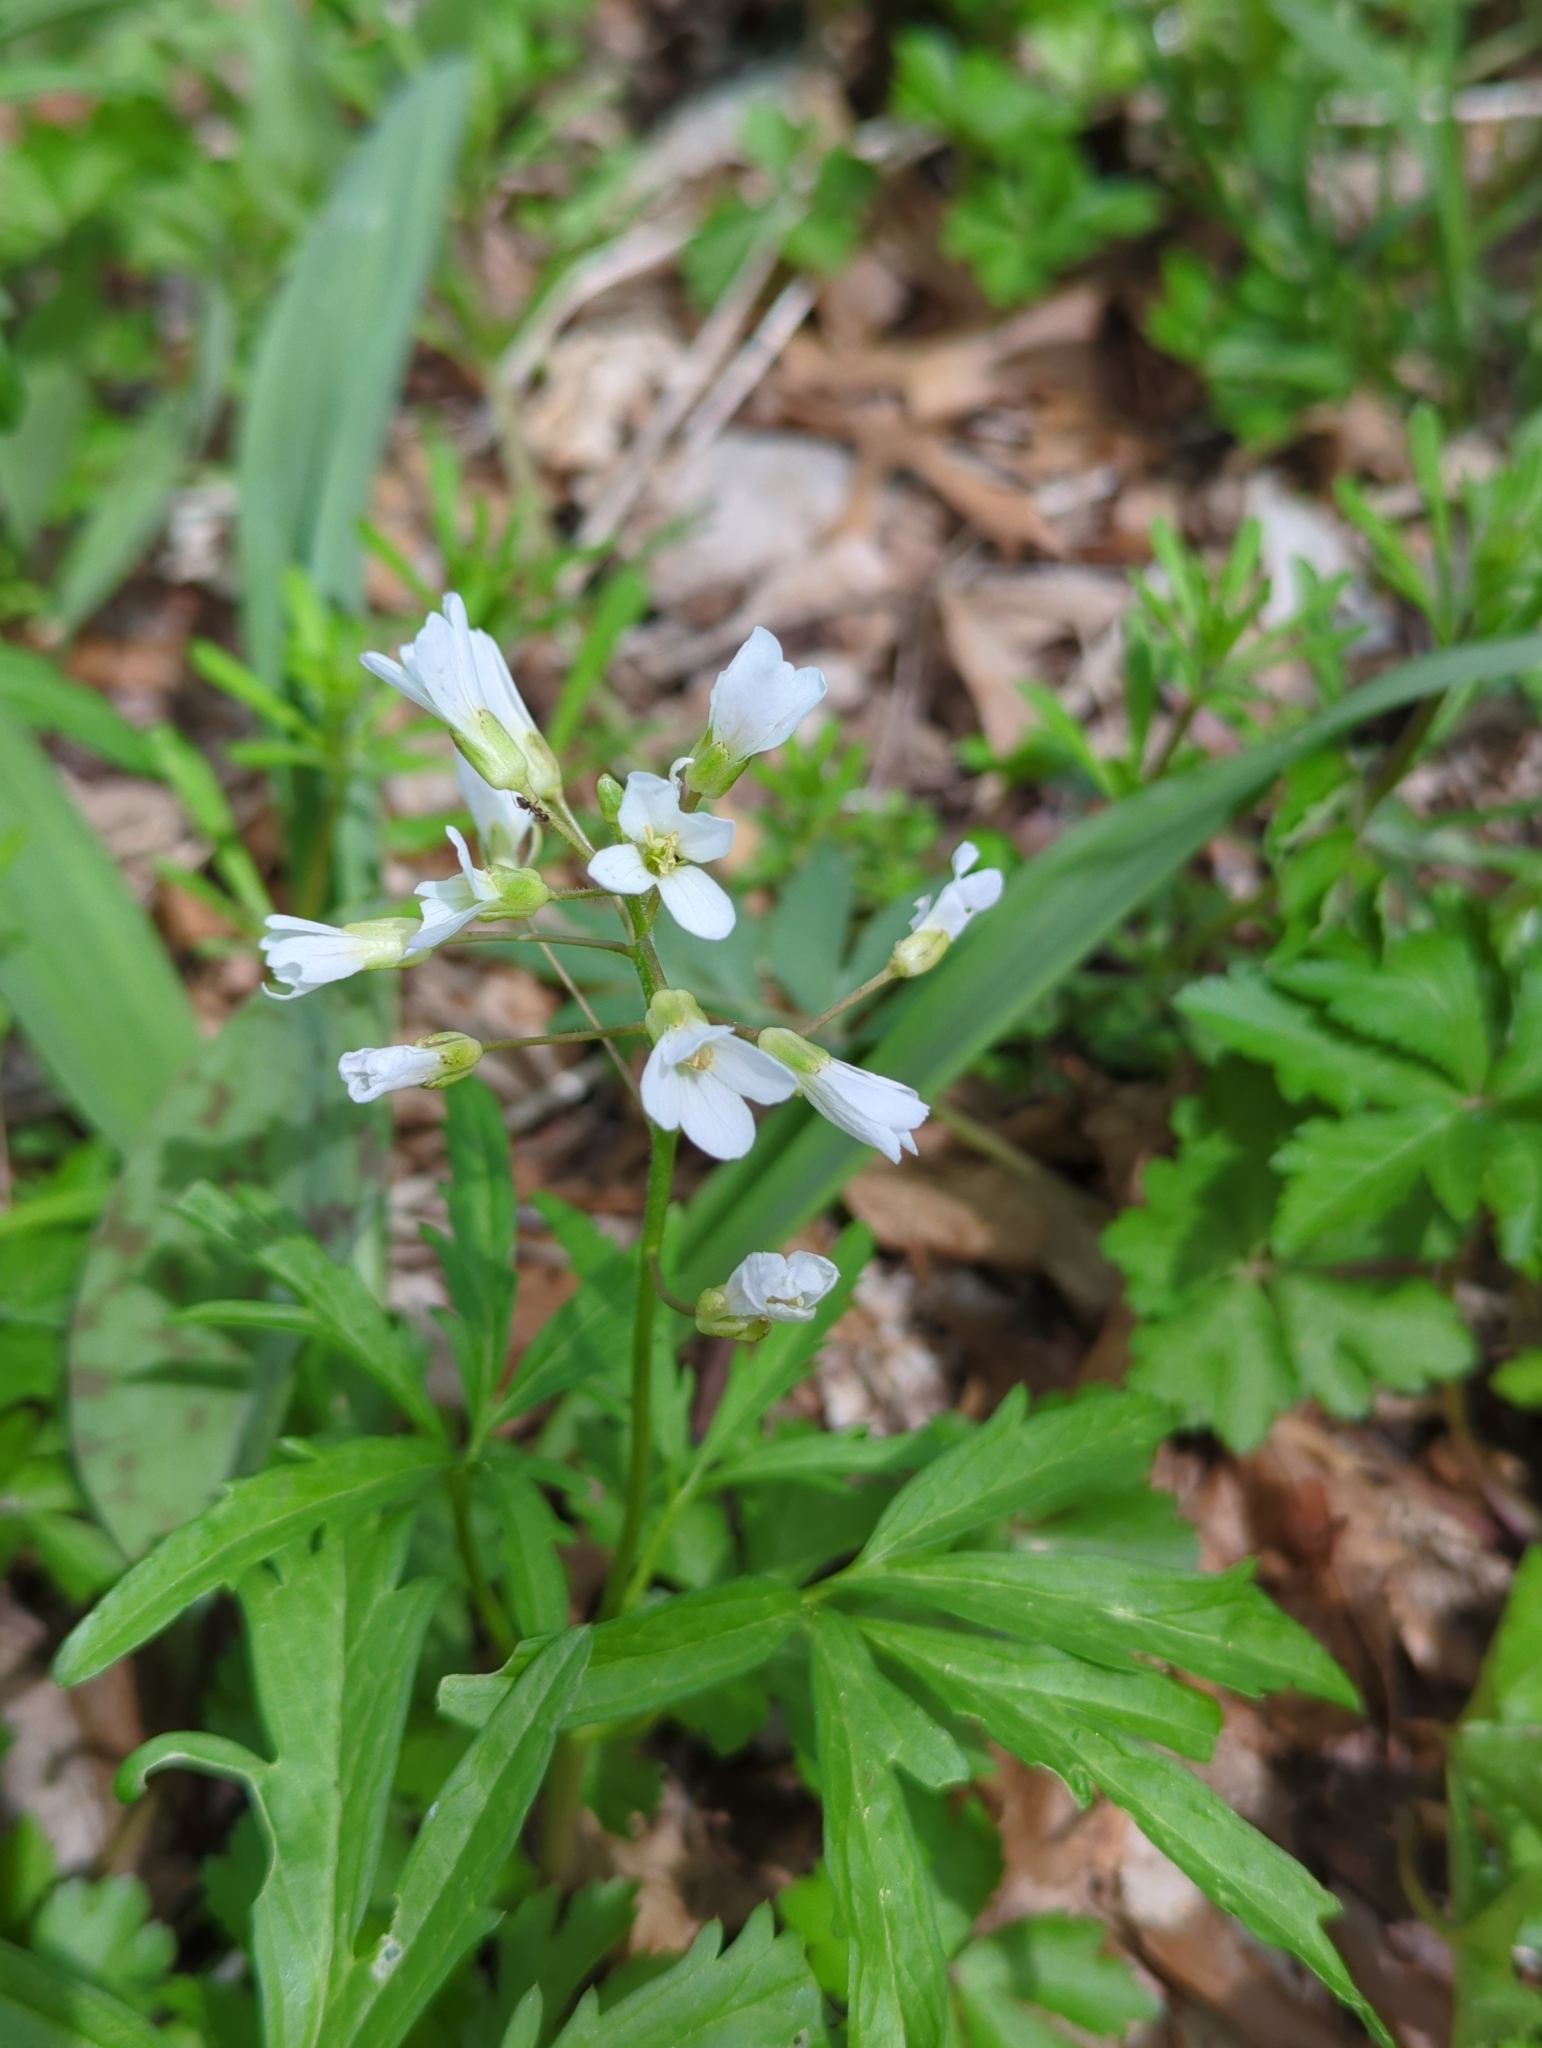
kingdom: Plantae
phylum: Tracheophyta
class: Magnoliopsida
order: Brassicales
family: Brassicaceae
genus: Cardamine
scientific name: Cardamine concatenata
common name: Cut-leaf toothcup
